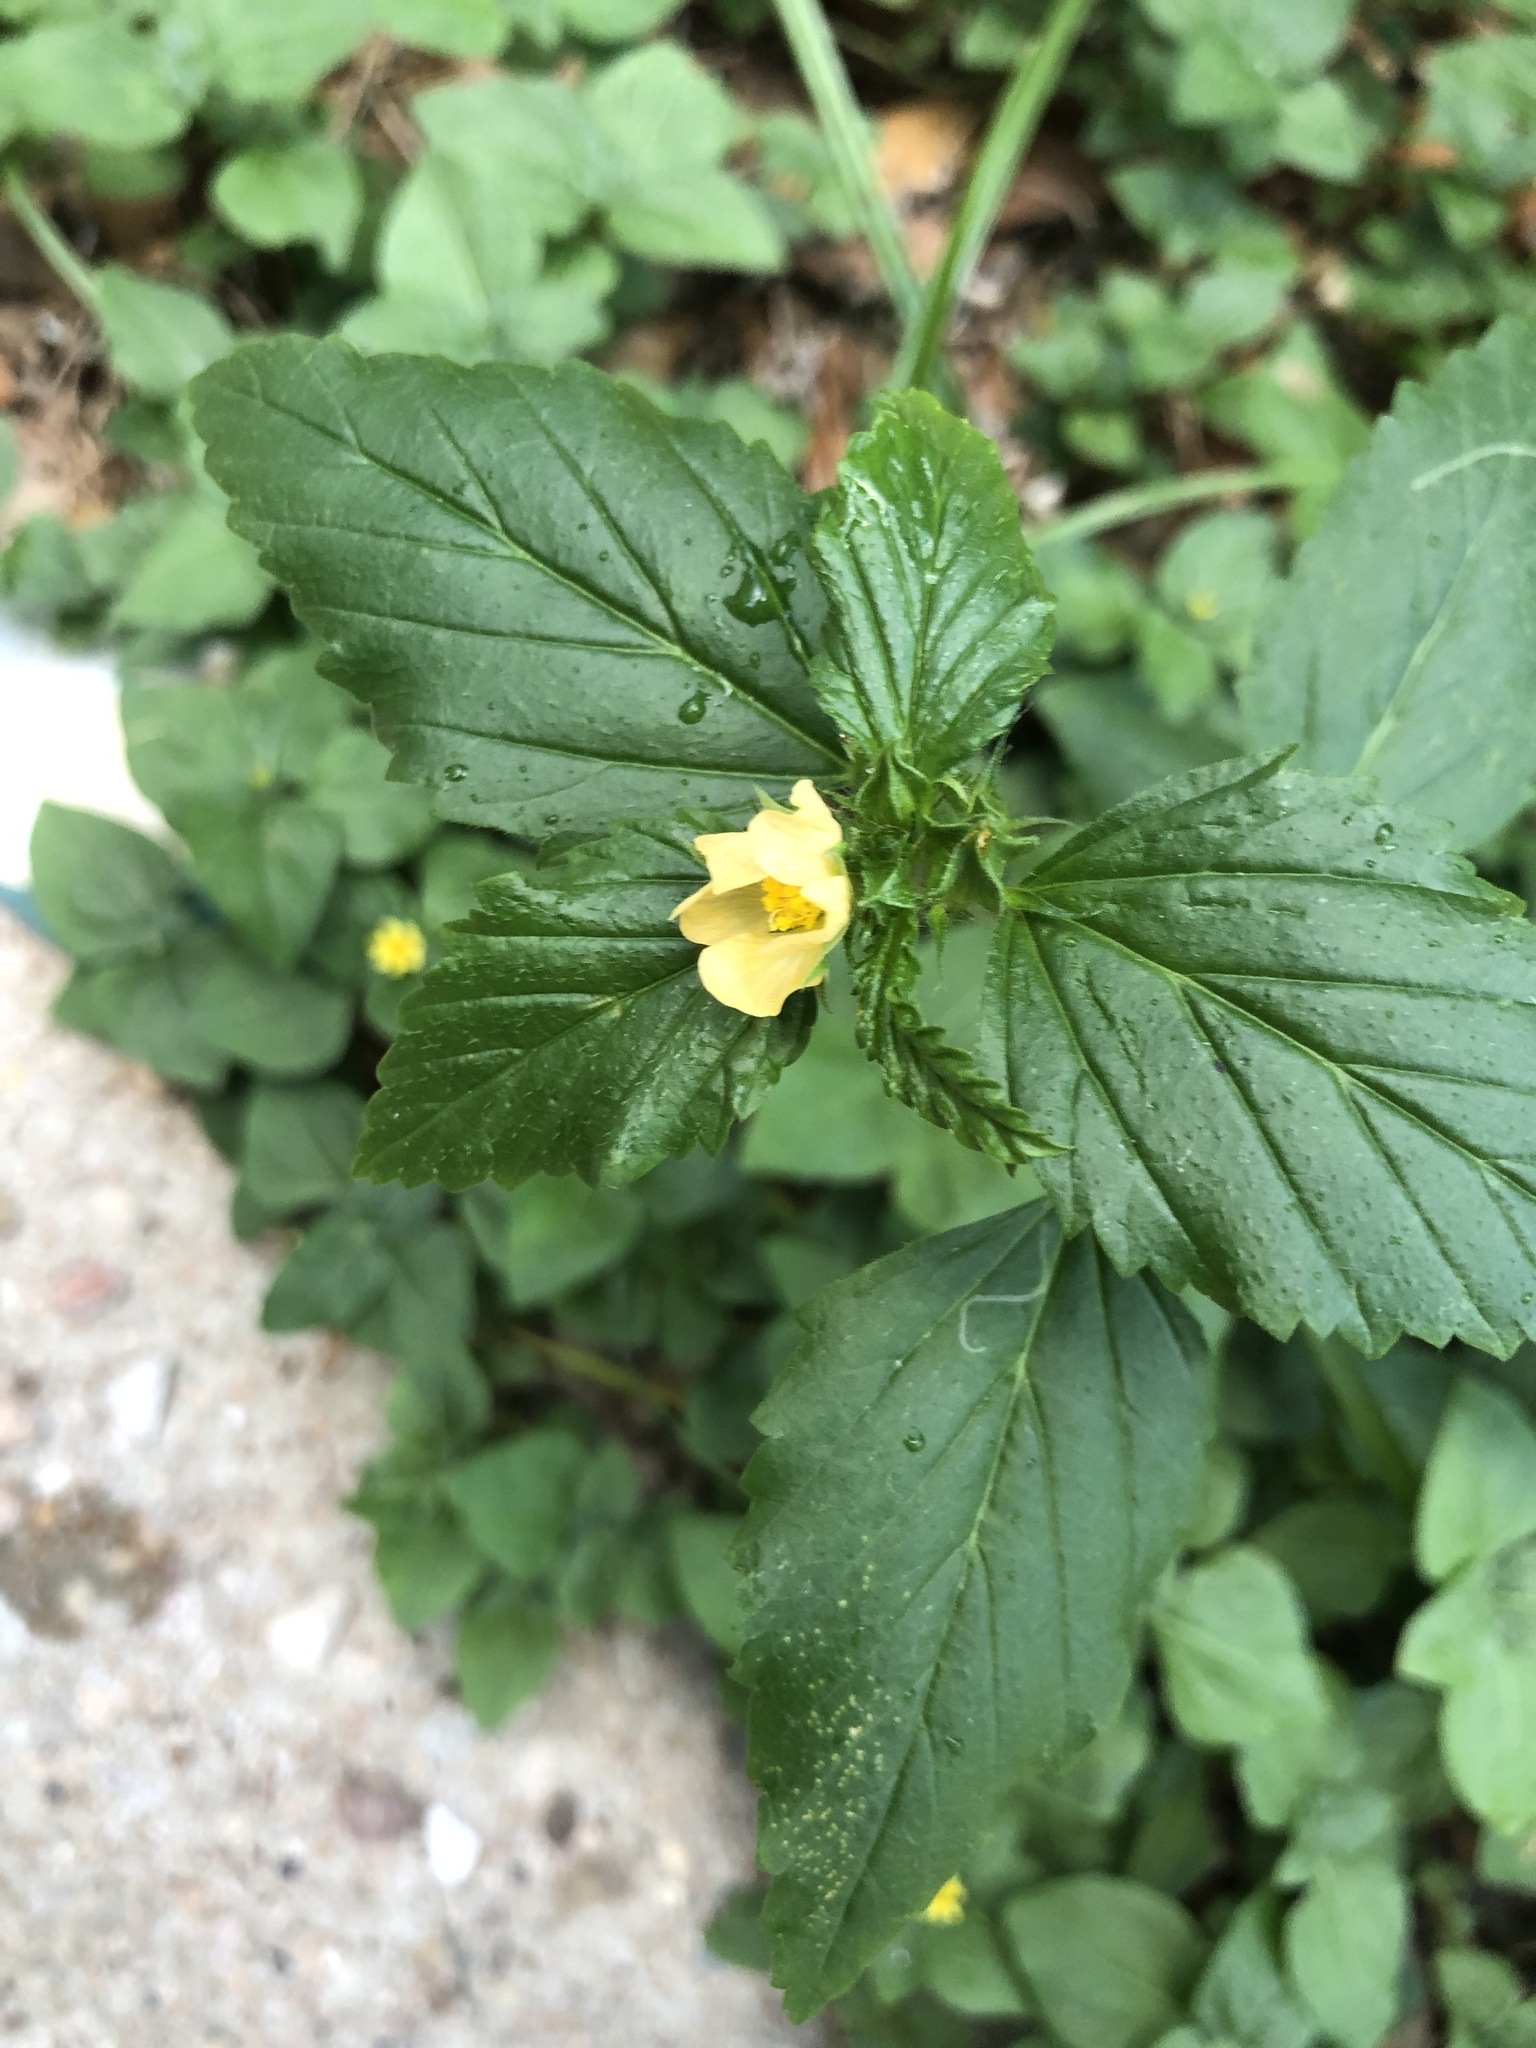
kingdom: Plantae
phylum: Tracheophyta
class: Magnoliopsida
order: Malvales
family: Malvaceae
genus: Malvastrum
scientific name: Malvastrum coromandelianum
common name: Threelobe false mallow
